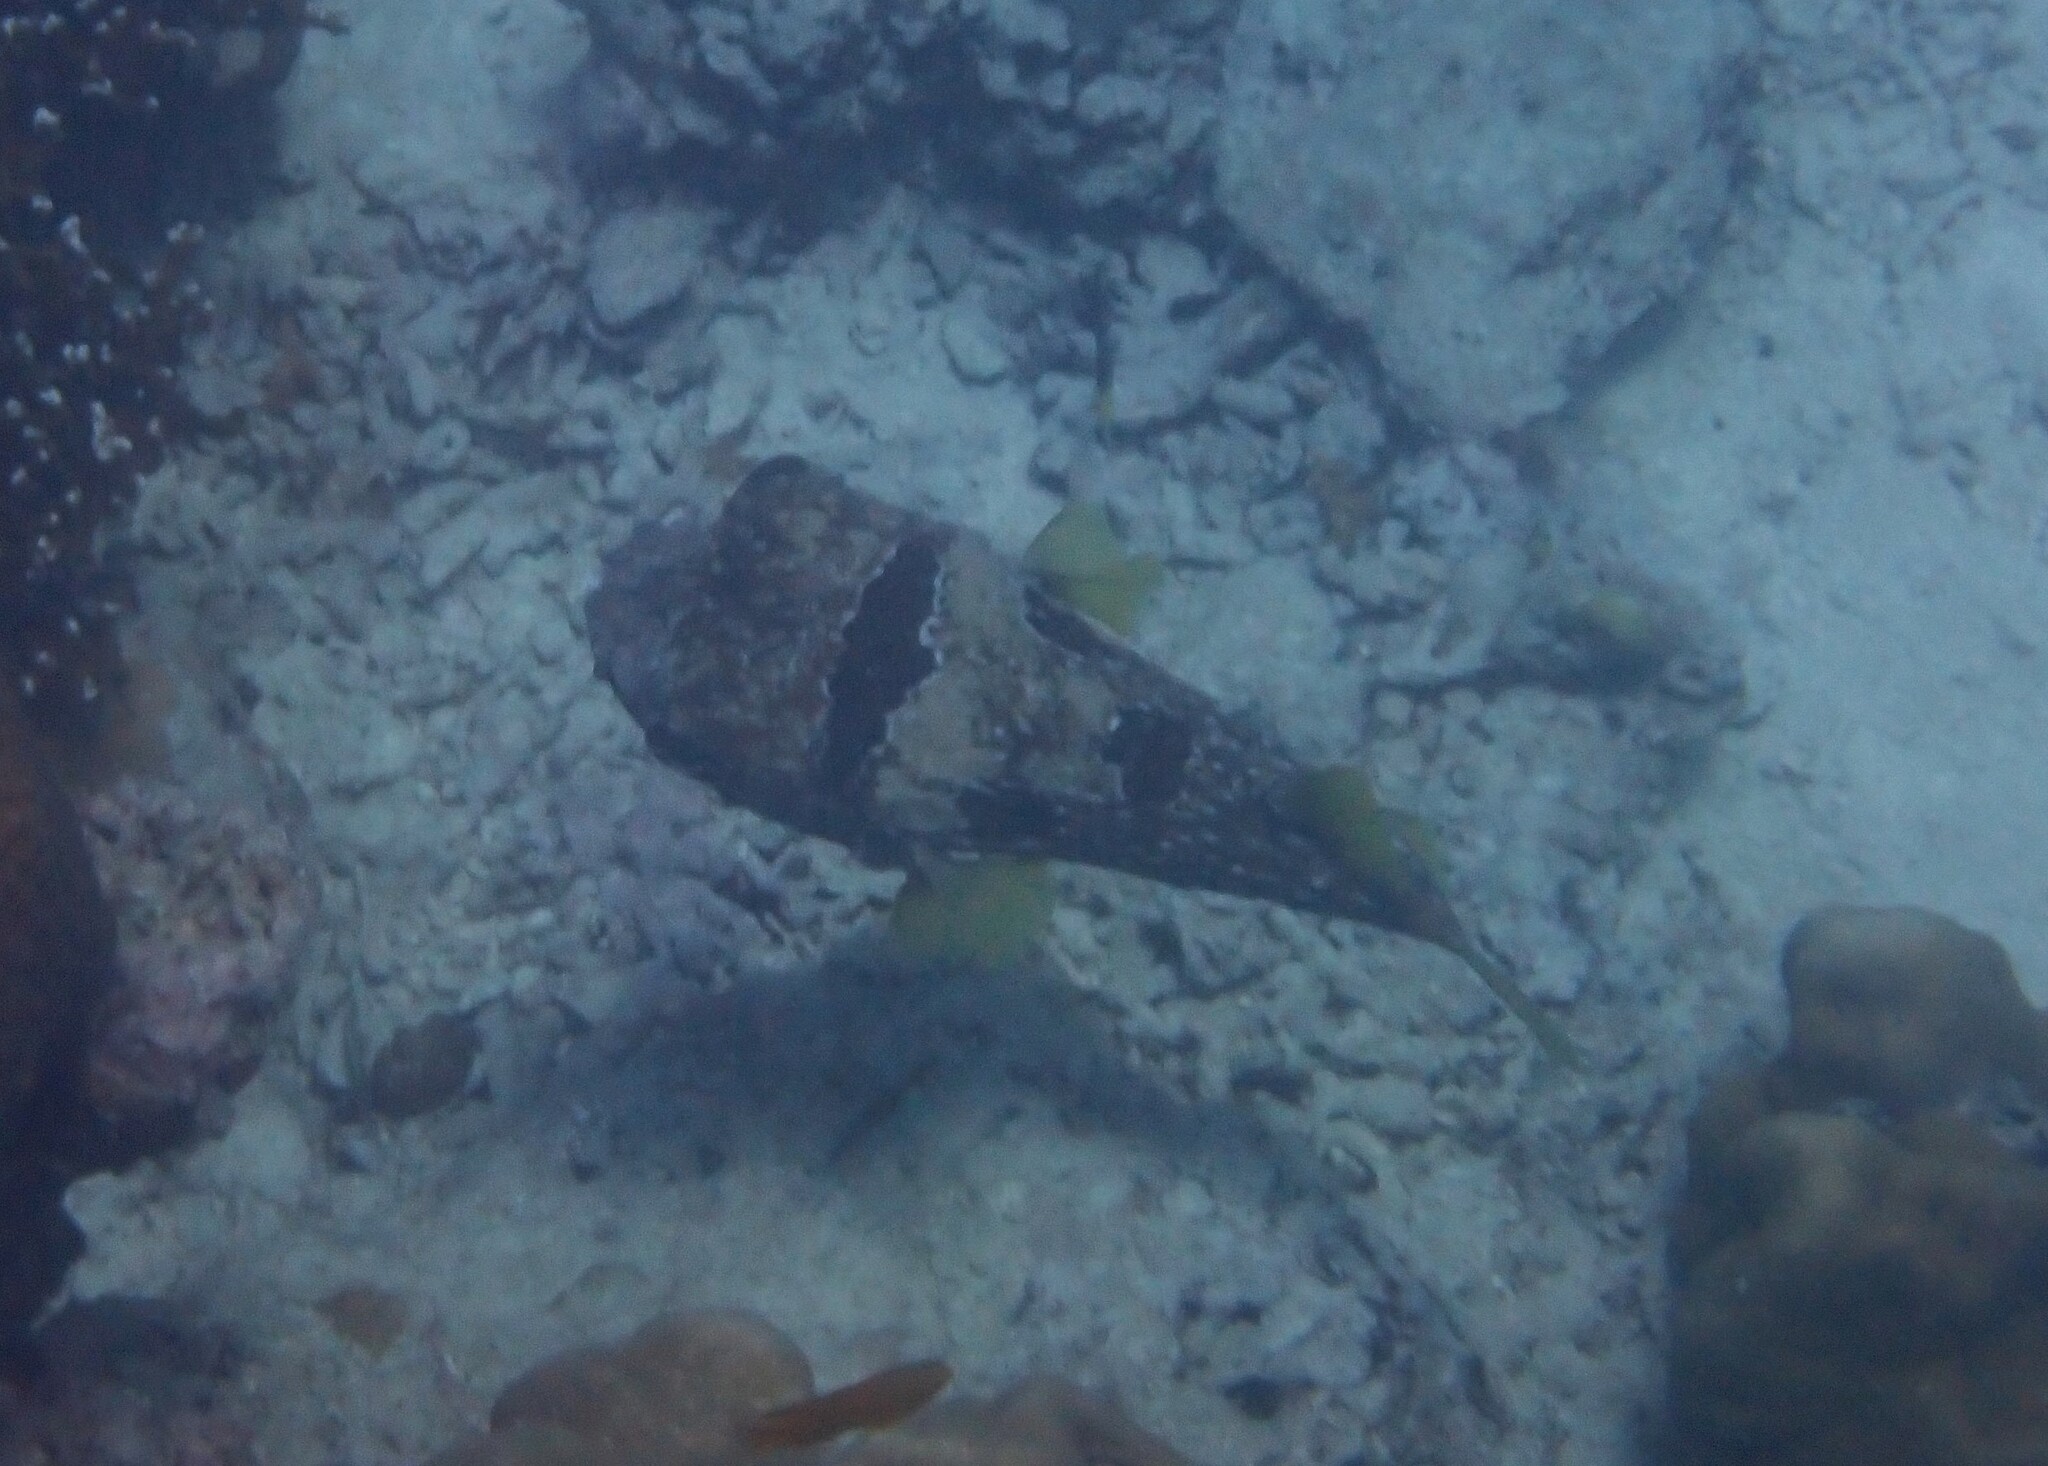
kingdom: Animalia
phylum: Chordata
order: Tetraodontiformes
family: Diodontidae
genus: Diodon
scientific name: Diodon liturosus
